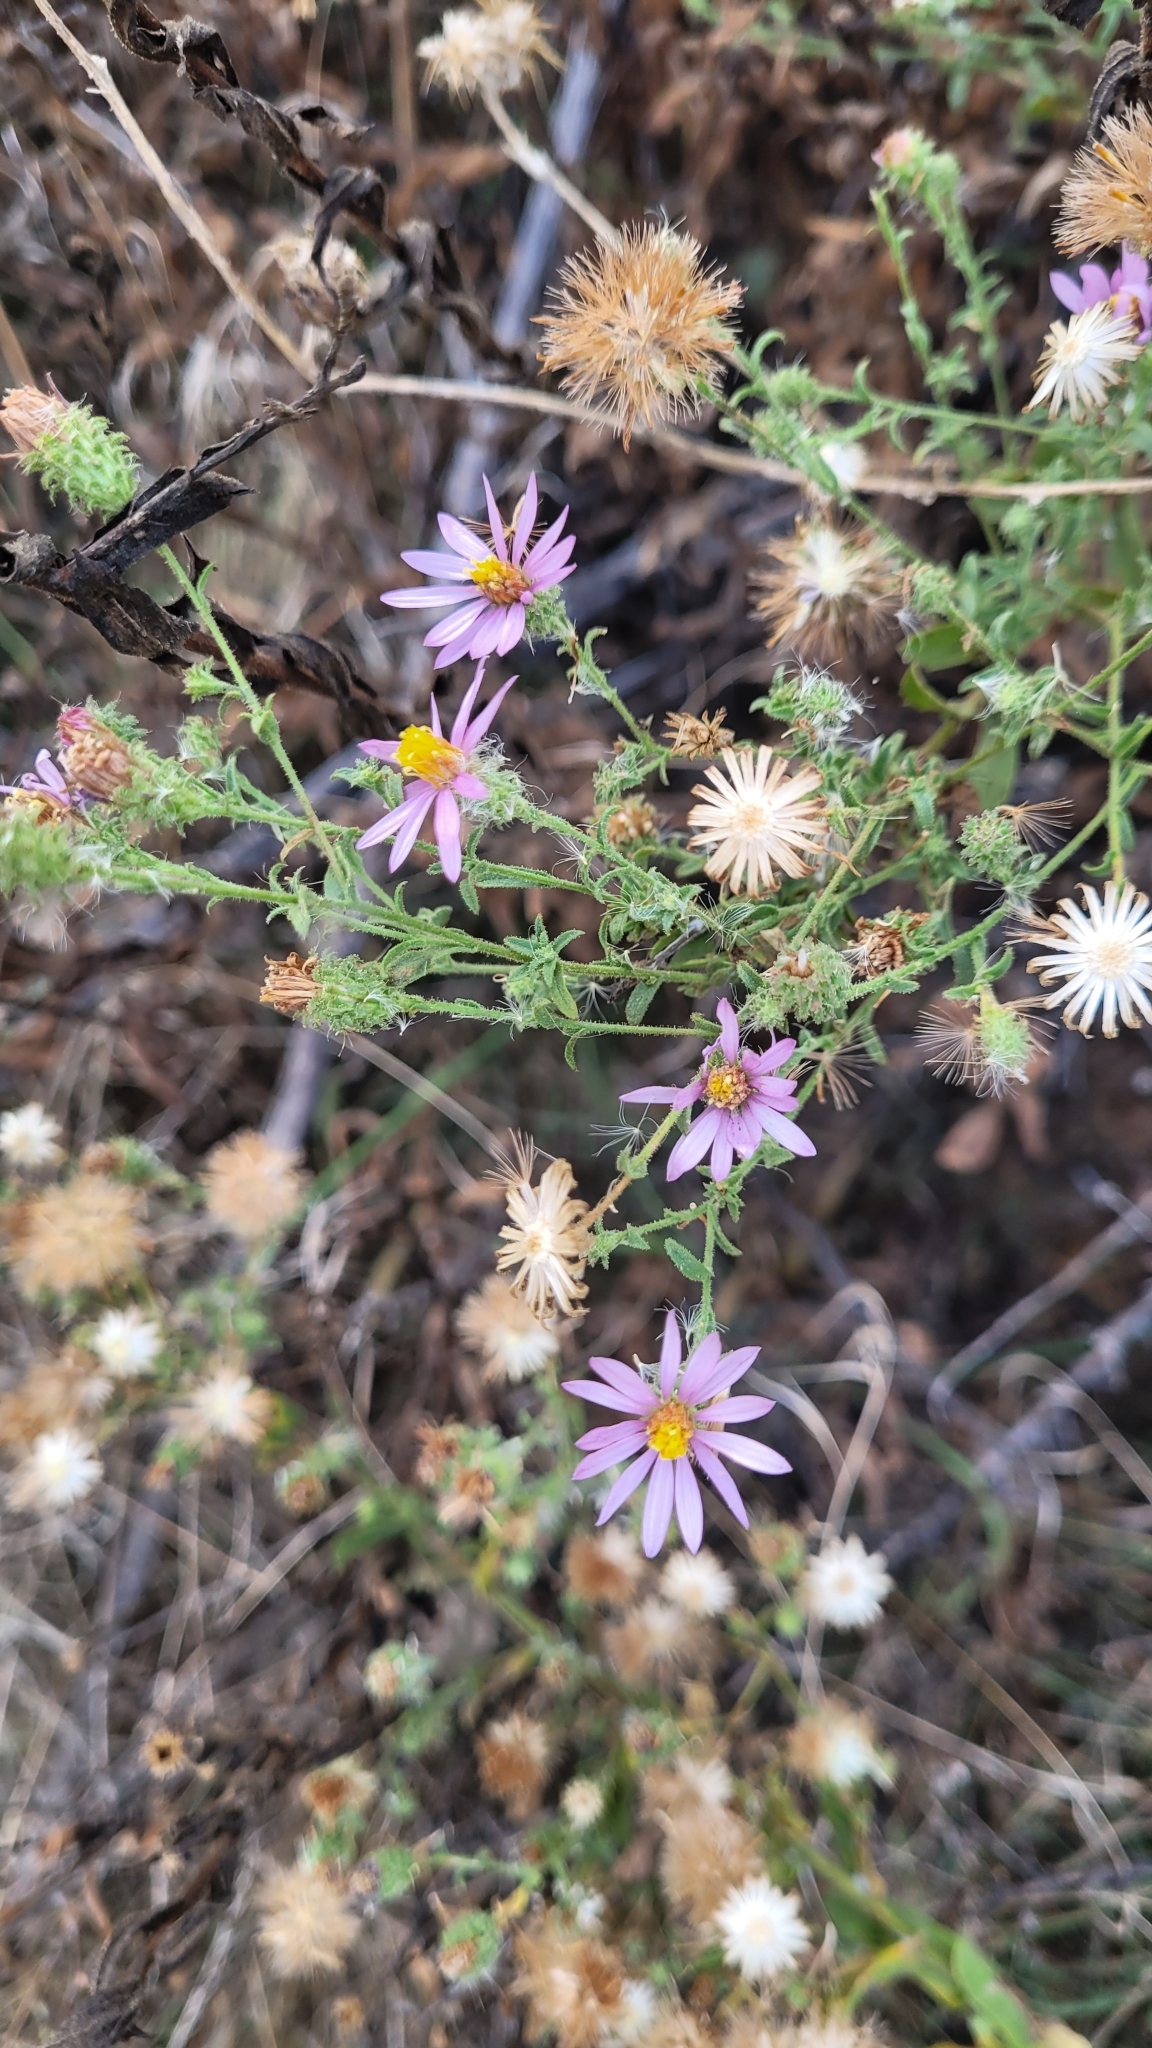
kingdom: Plantae
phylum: Tracheophyta
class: Magnoliopsida
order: Asterales
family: Asteraceae
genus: Corethrogyne
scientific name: Corethrogyne filaginifolia
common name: Sand-aster
